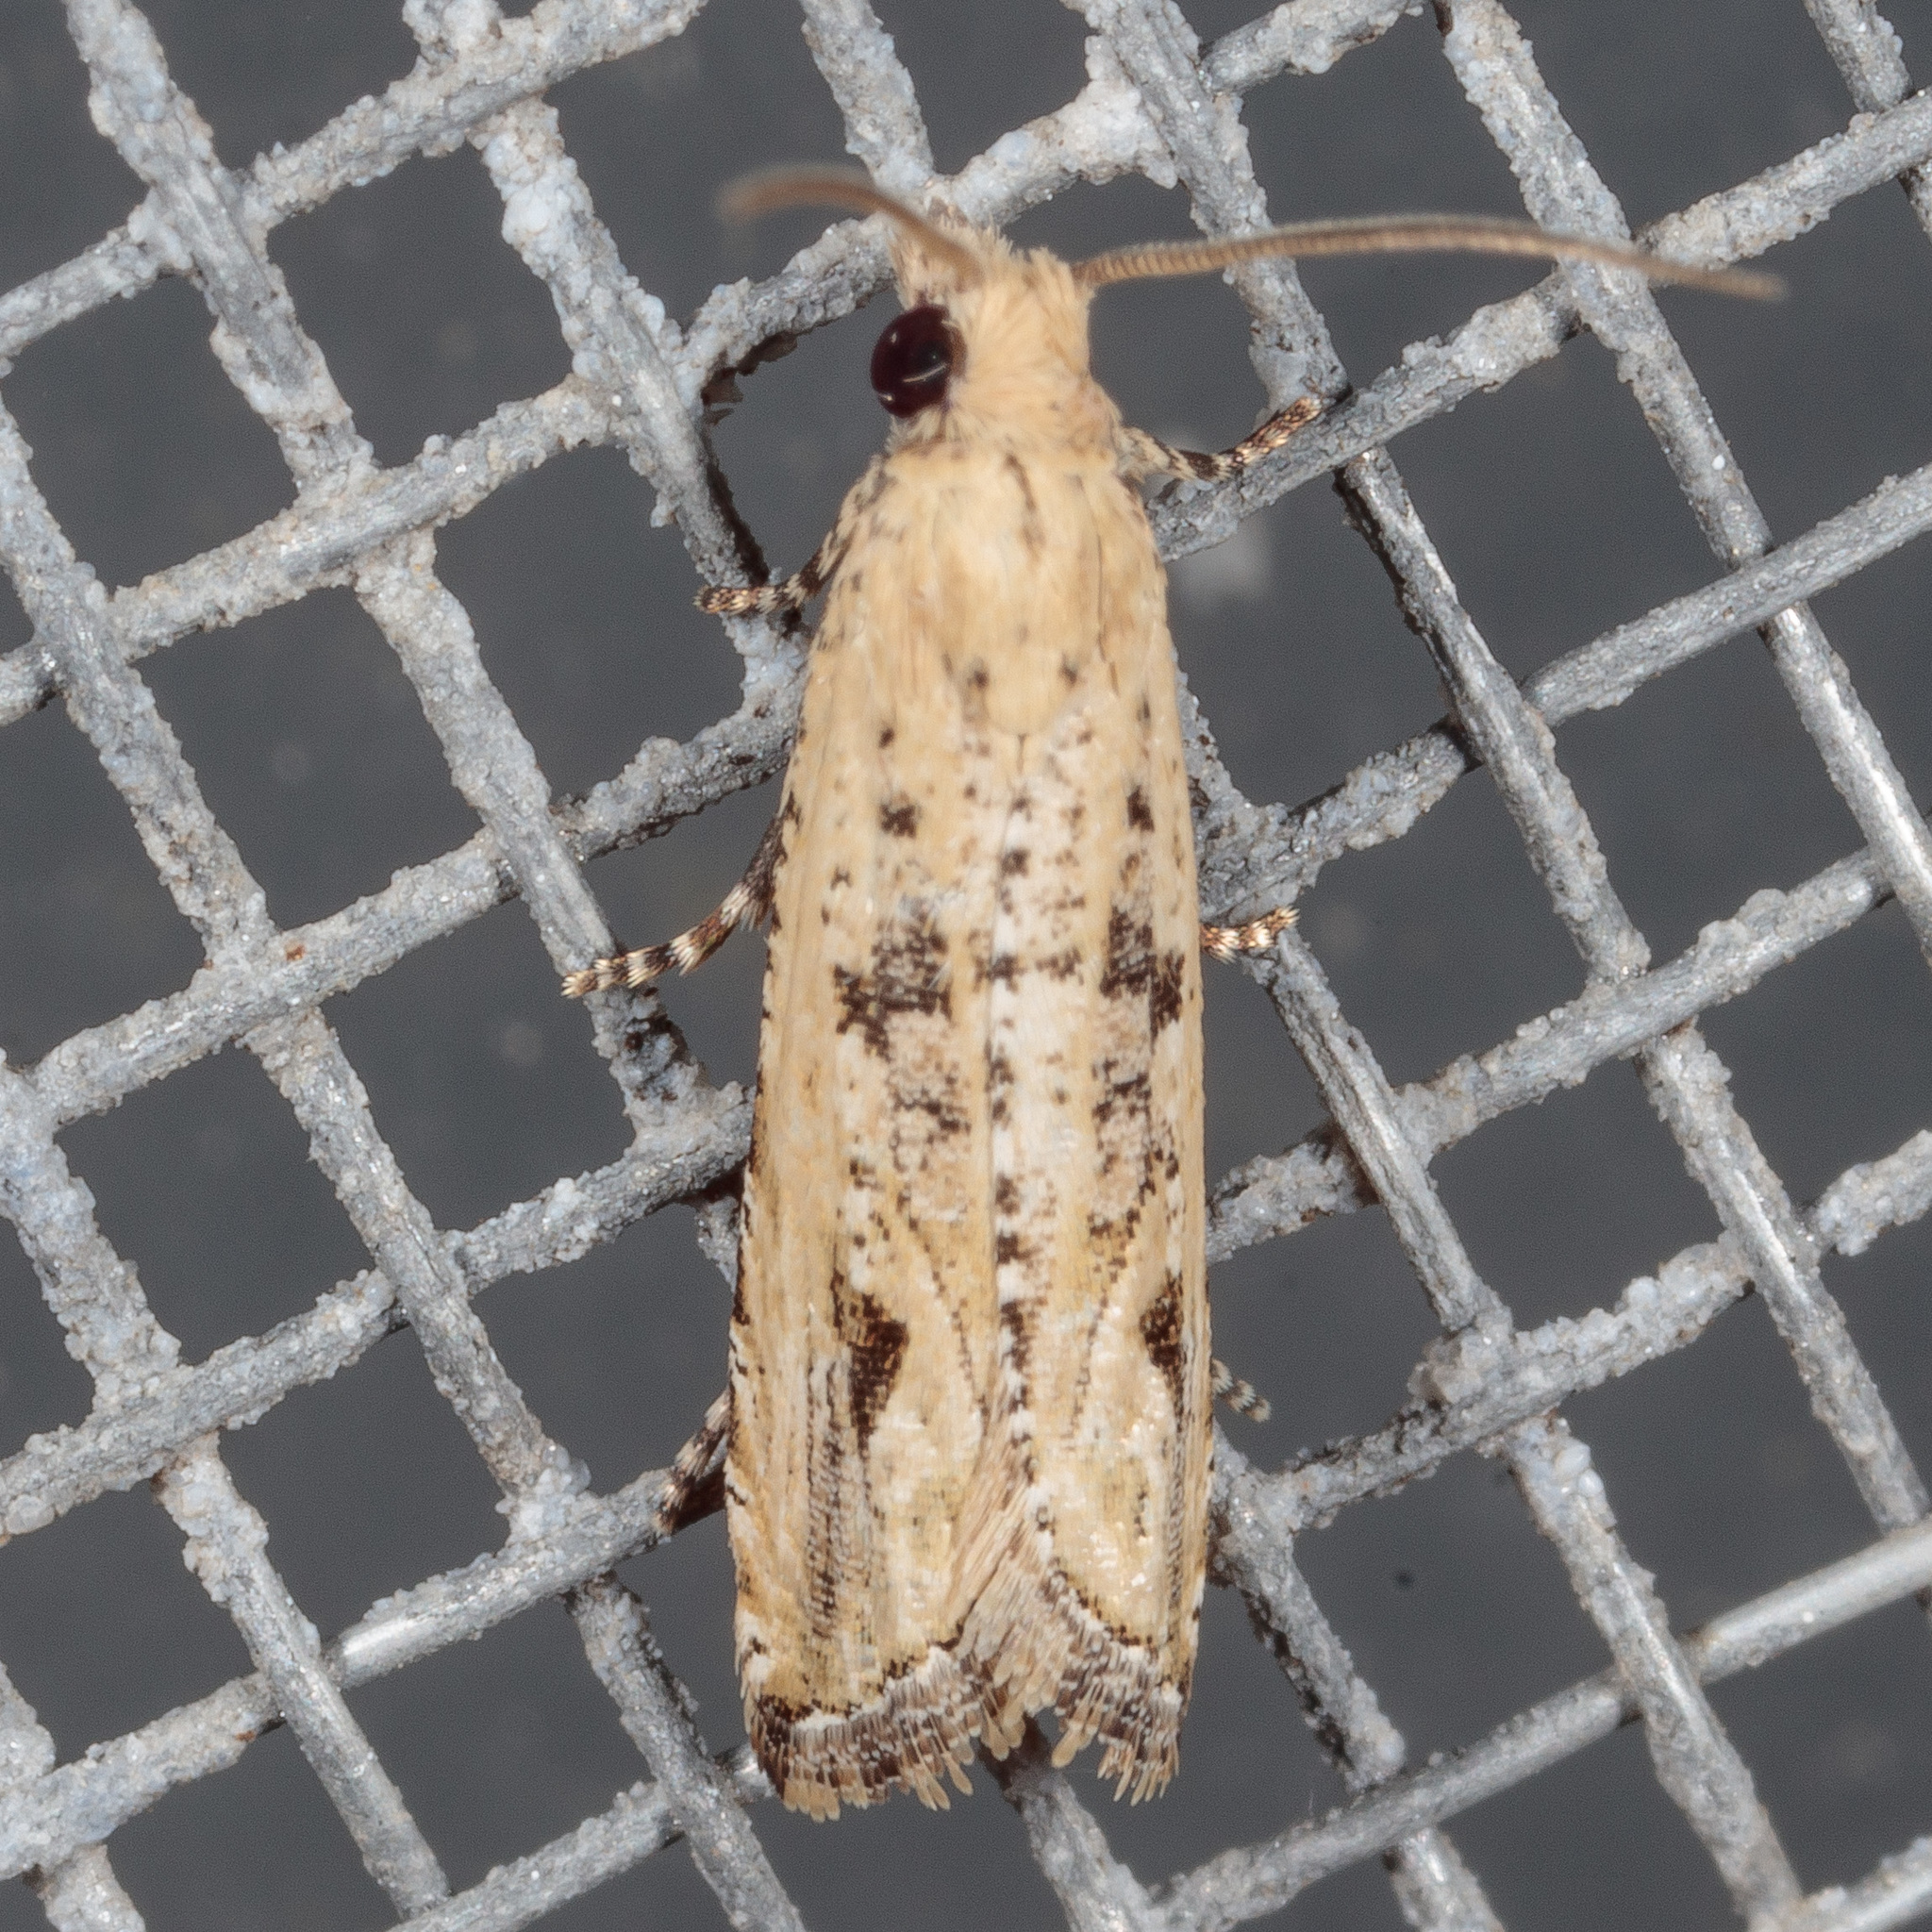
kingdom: Animalia
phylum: Arthropoda
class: Insecta
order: Lepidoptera
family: Tortricidae
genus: Bactra
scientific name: Bactra verutana
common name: Javelin moth
